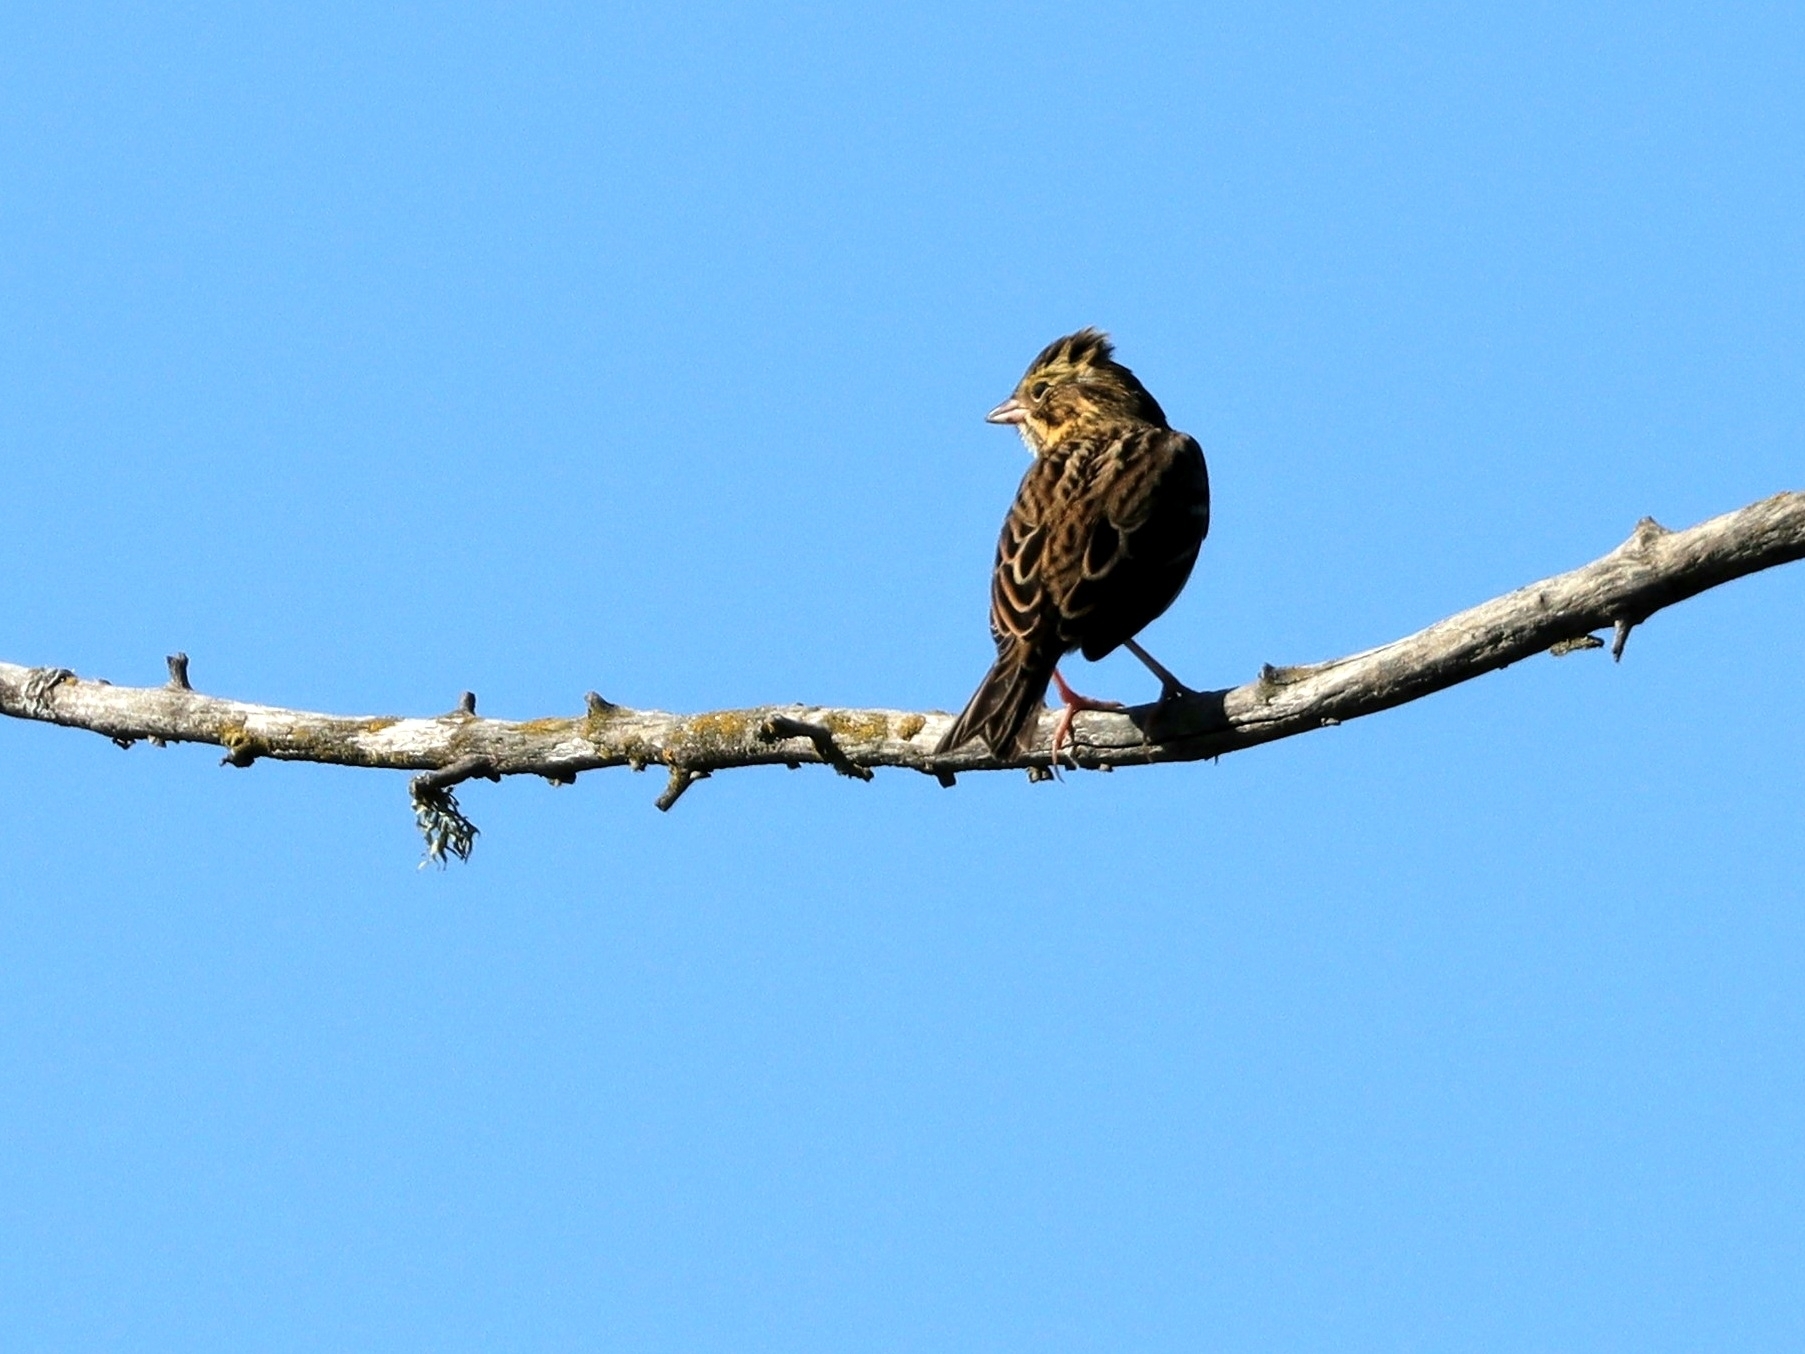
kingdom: Animalia
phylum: Chordata
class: Aves
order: Passeriformes
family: Passerellidae
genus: Passerculus
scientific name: Passerculus sandwichensis
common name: Savannah sparrow
